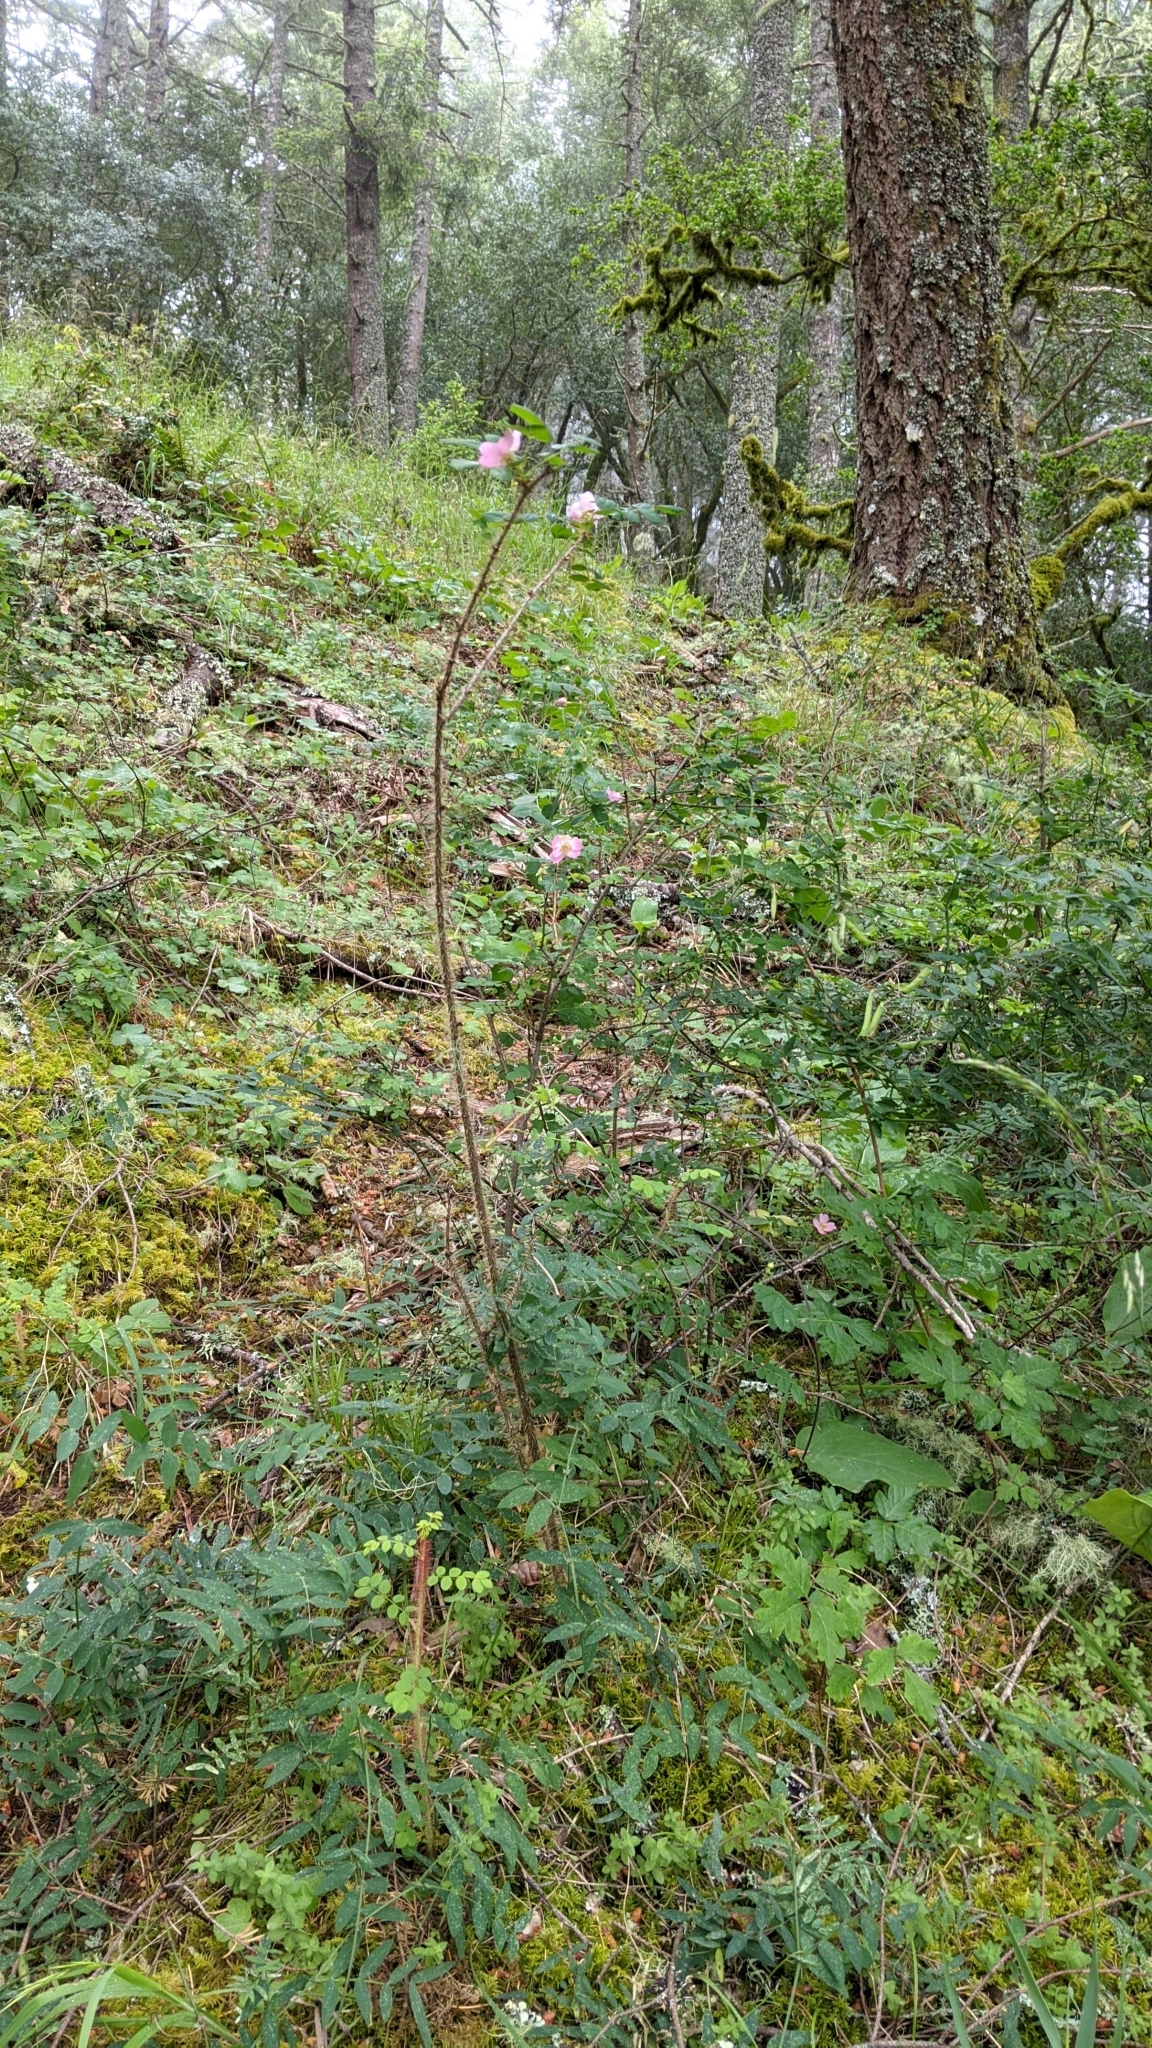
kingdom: Plantae
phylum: Tracheophyta
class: Magnoliopsida
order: Rosales
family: Rosaceae
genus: Rosa
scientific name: Rosa gymnocarpa
